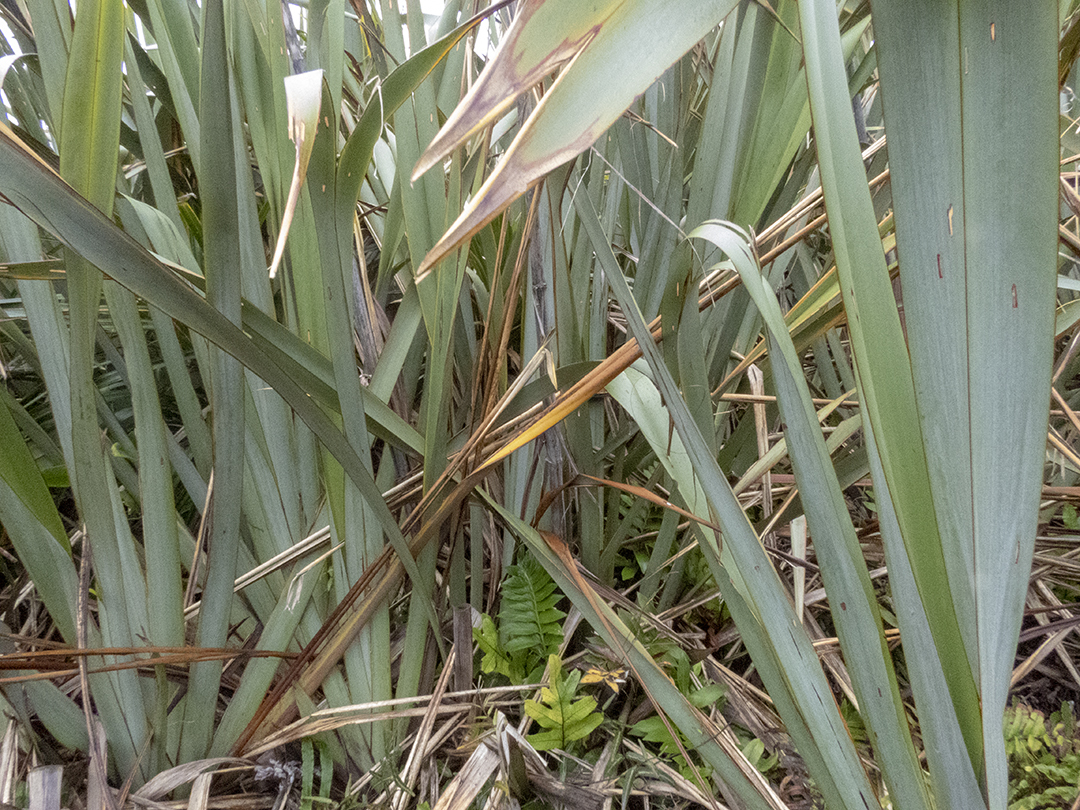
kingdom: Plantae
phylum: Tracheophyta
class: Liliopsida
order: Asparagales
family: Asphodelaceae
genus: Phormium
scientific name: Phormium tenax
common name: New zealand flax
